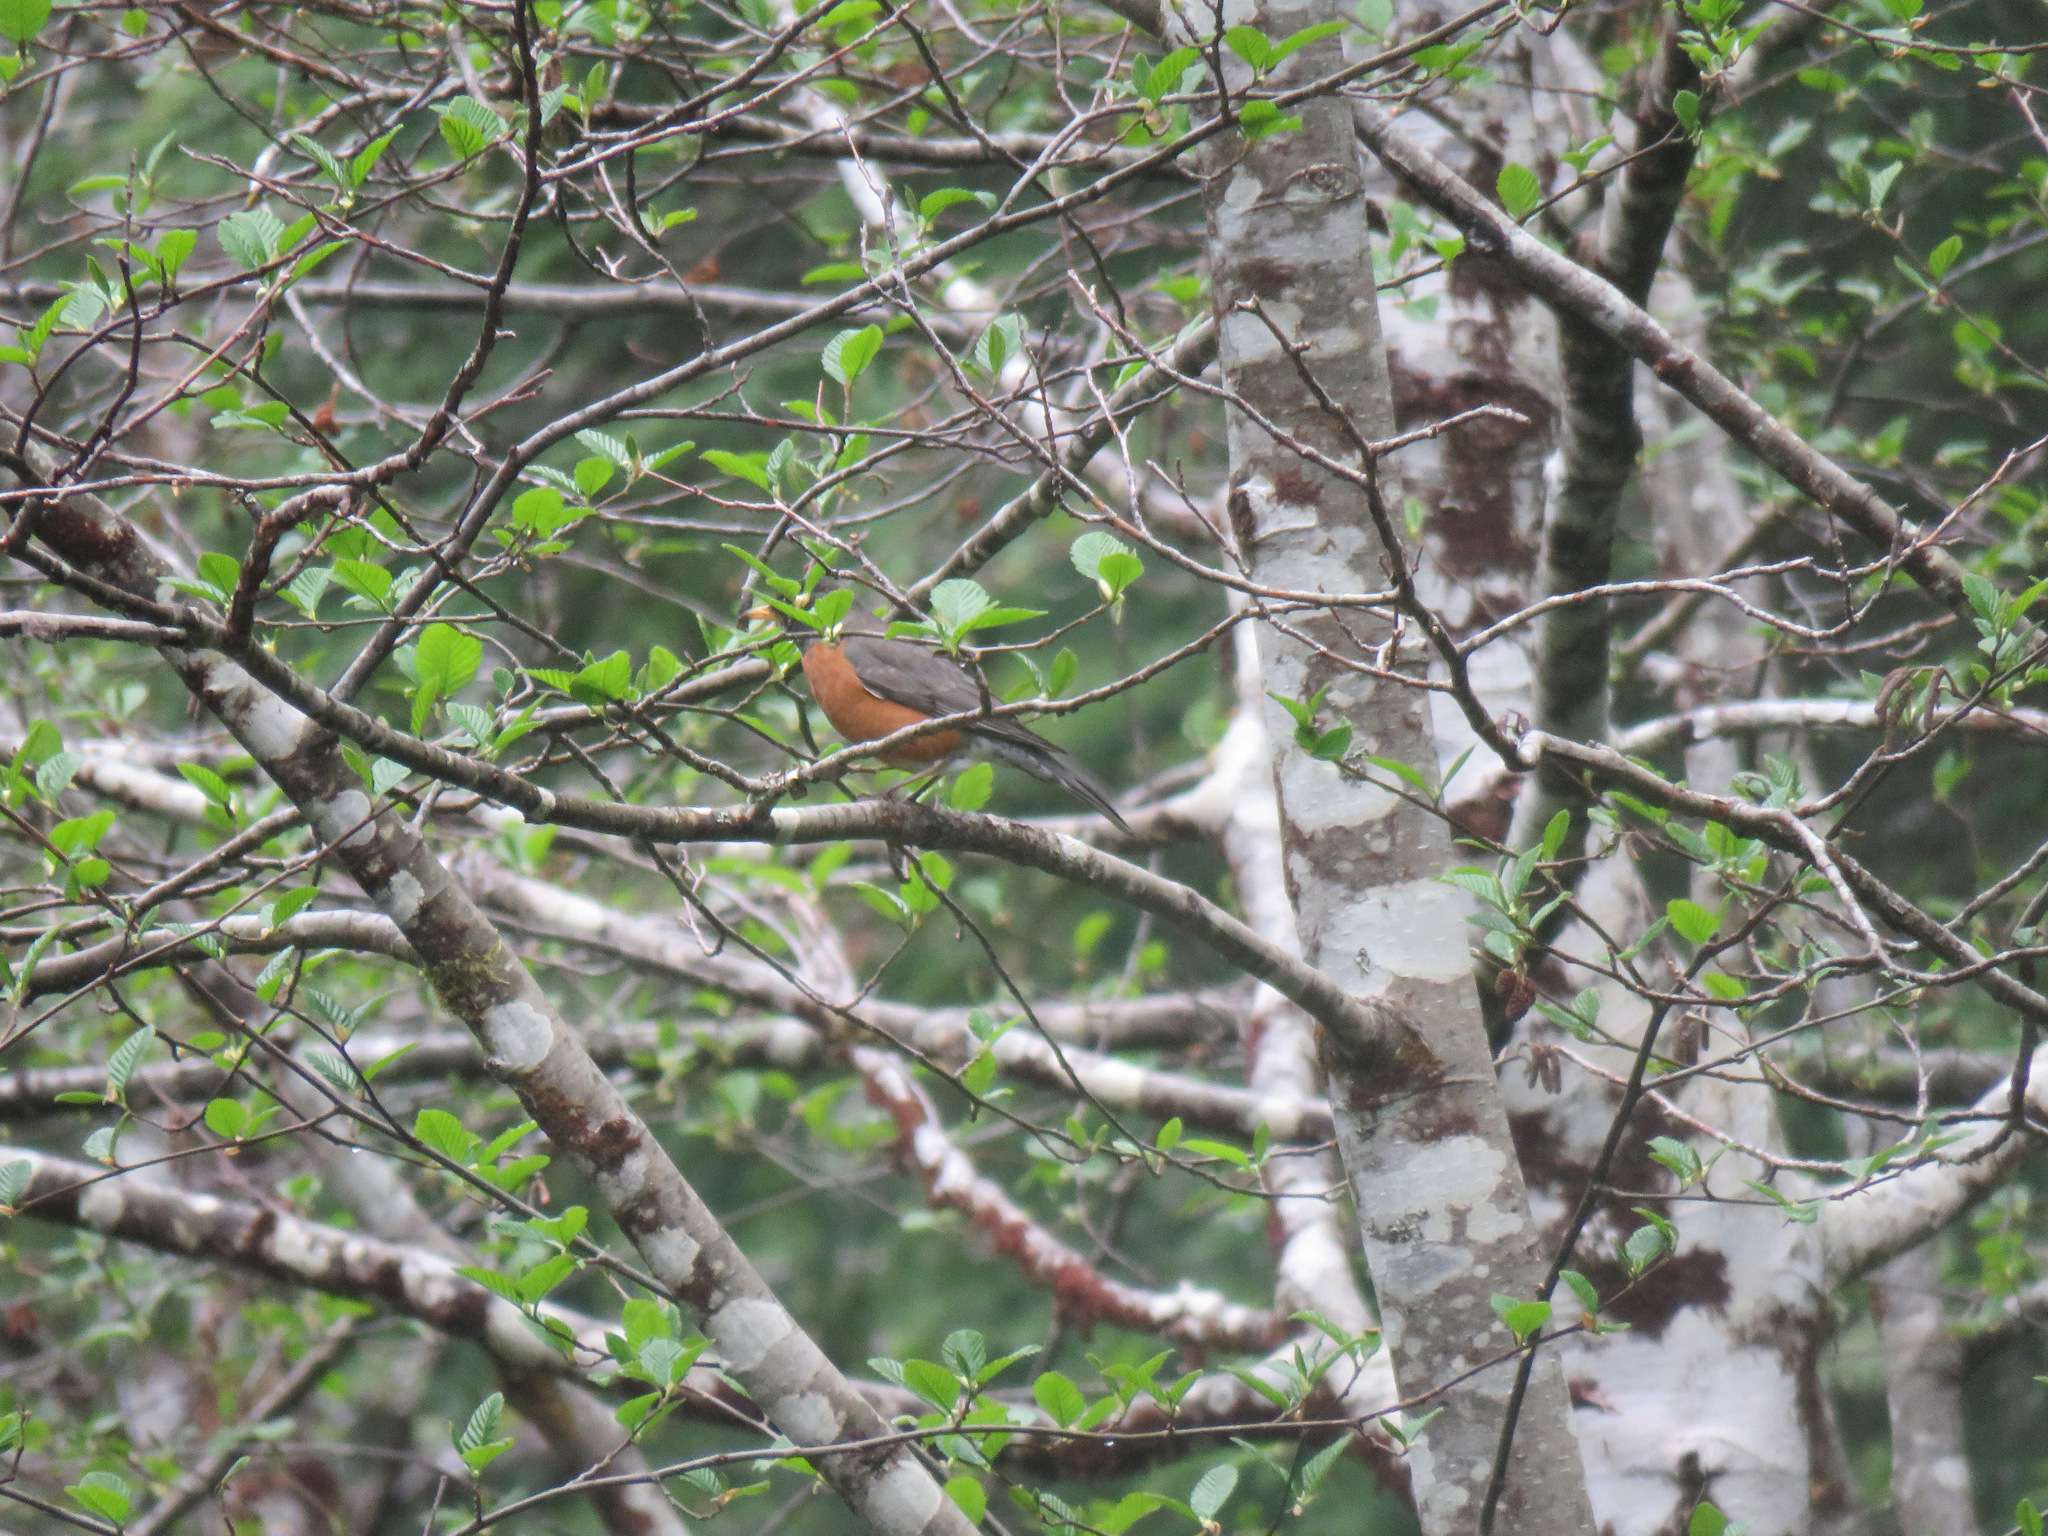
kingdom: Animalia
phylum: Chordata
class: Aves
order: Passeriformes
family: Turdidae
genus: Turdus
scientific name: Turdus migratorius
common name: American robin
